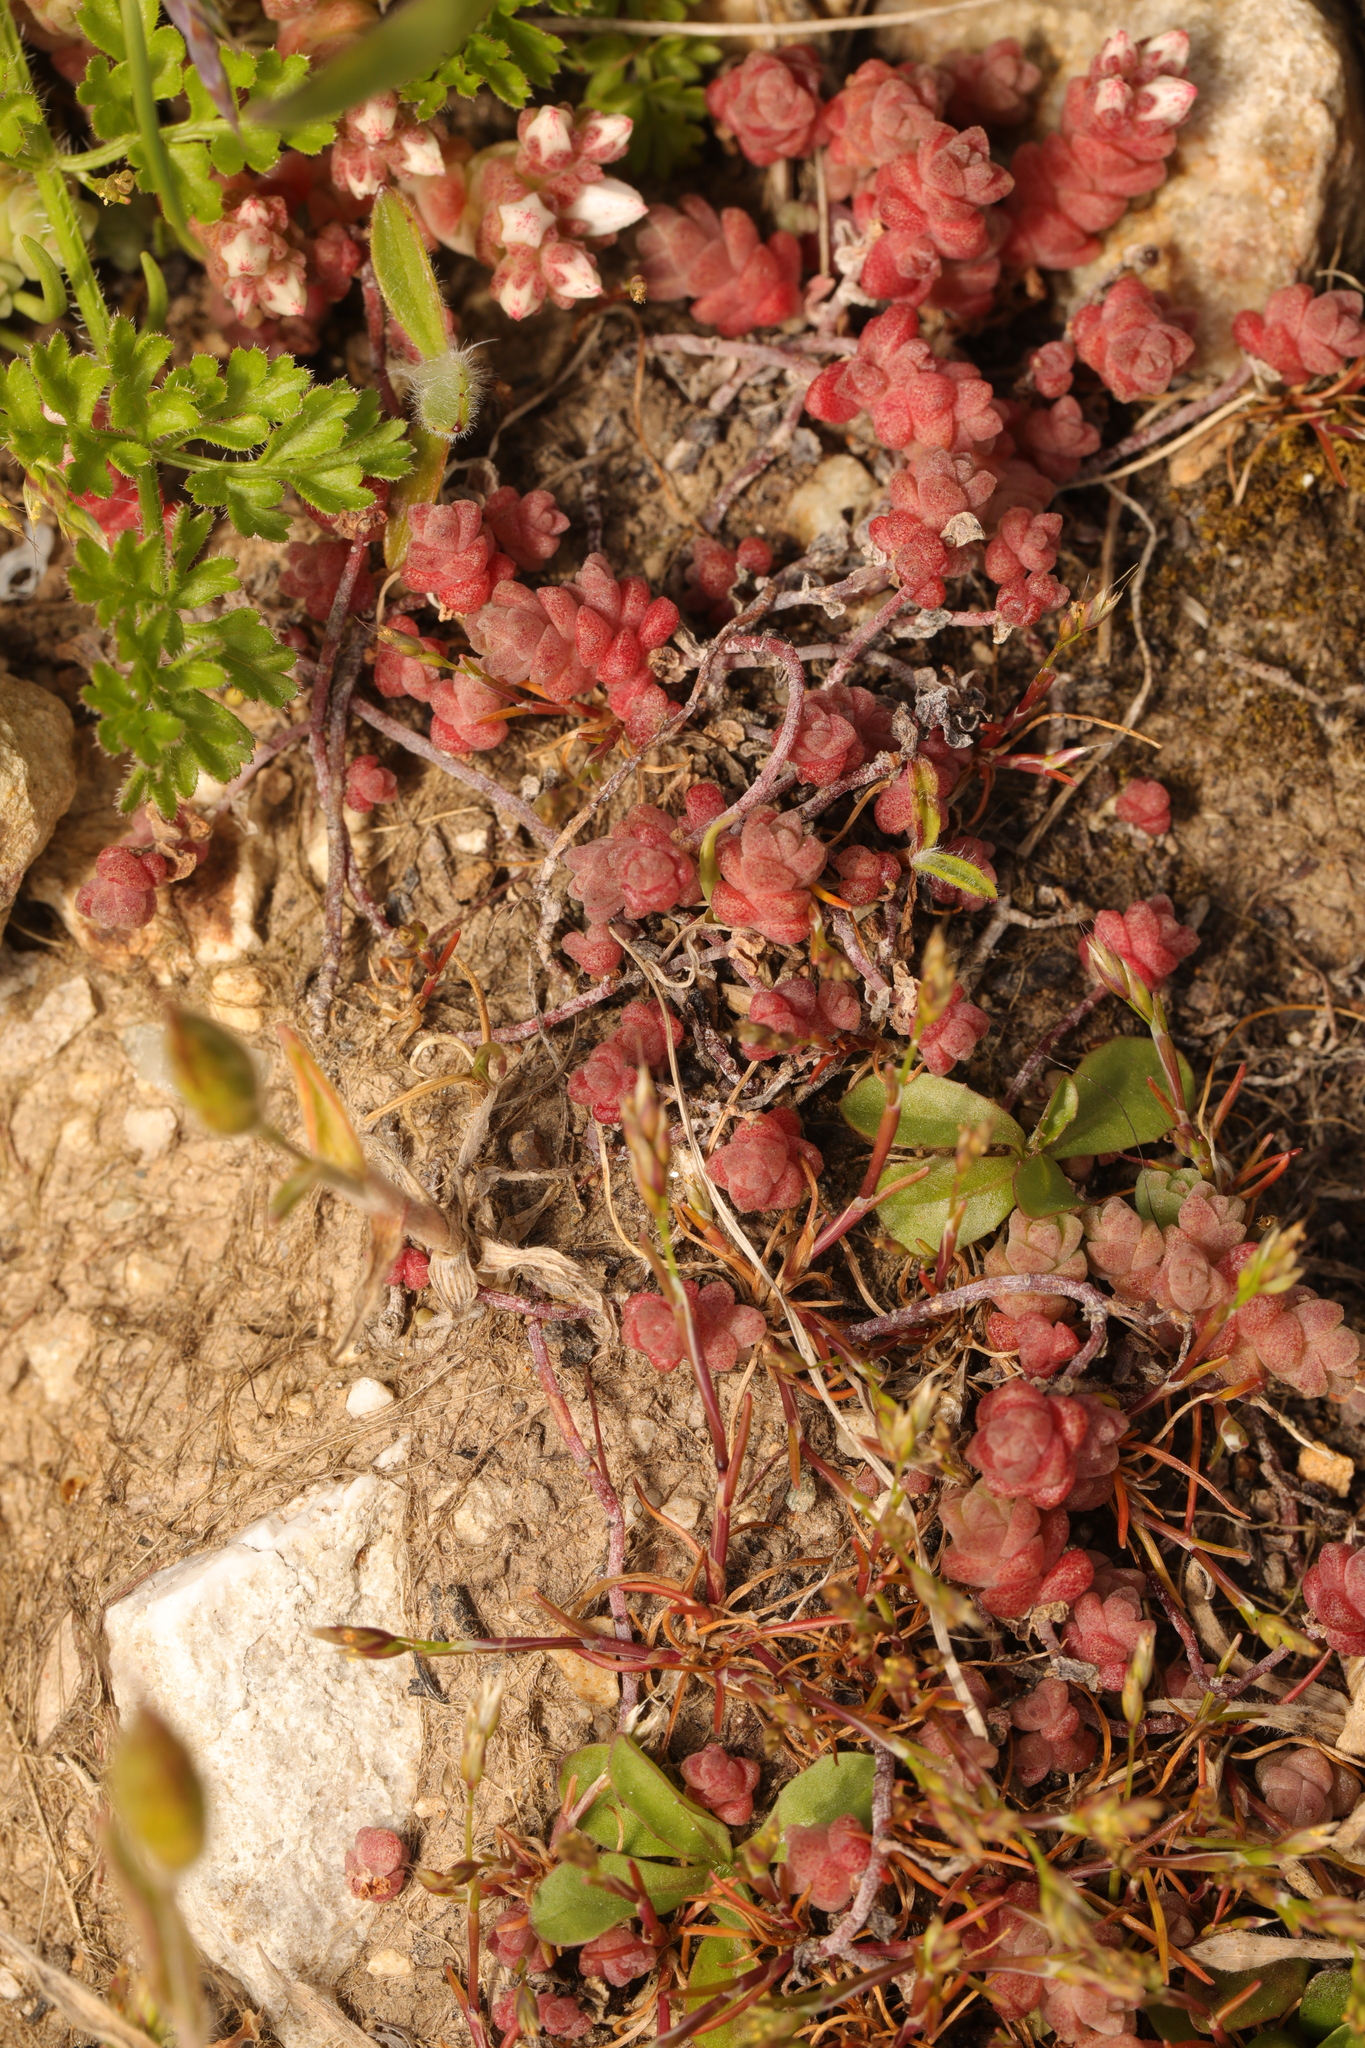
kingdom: Plantae
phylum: Tracheophyta
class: Magnoliopsida
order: Saxifragales
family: Crassulaceae
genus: Sedum
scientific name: Sedum anglicum
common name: English stonecrop
